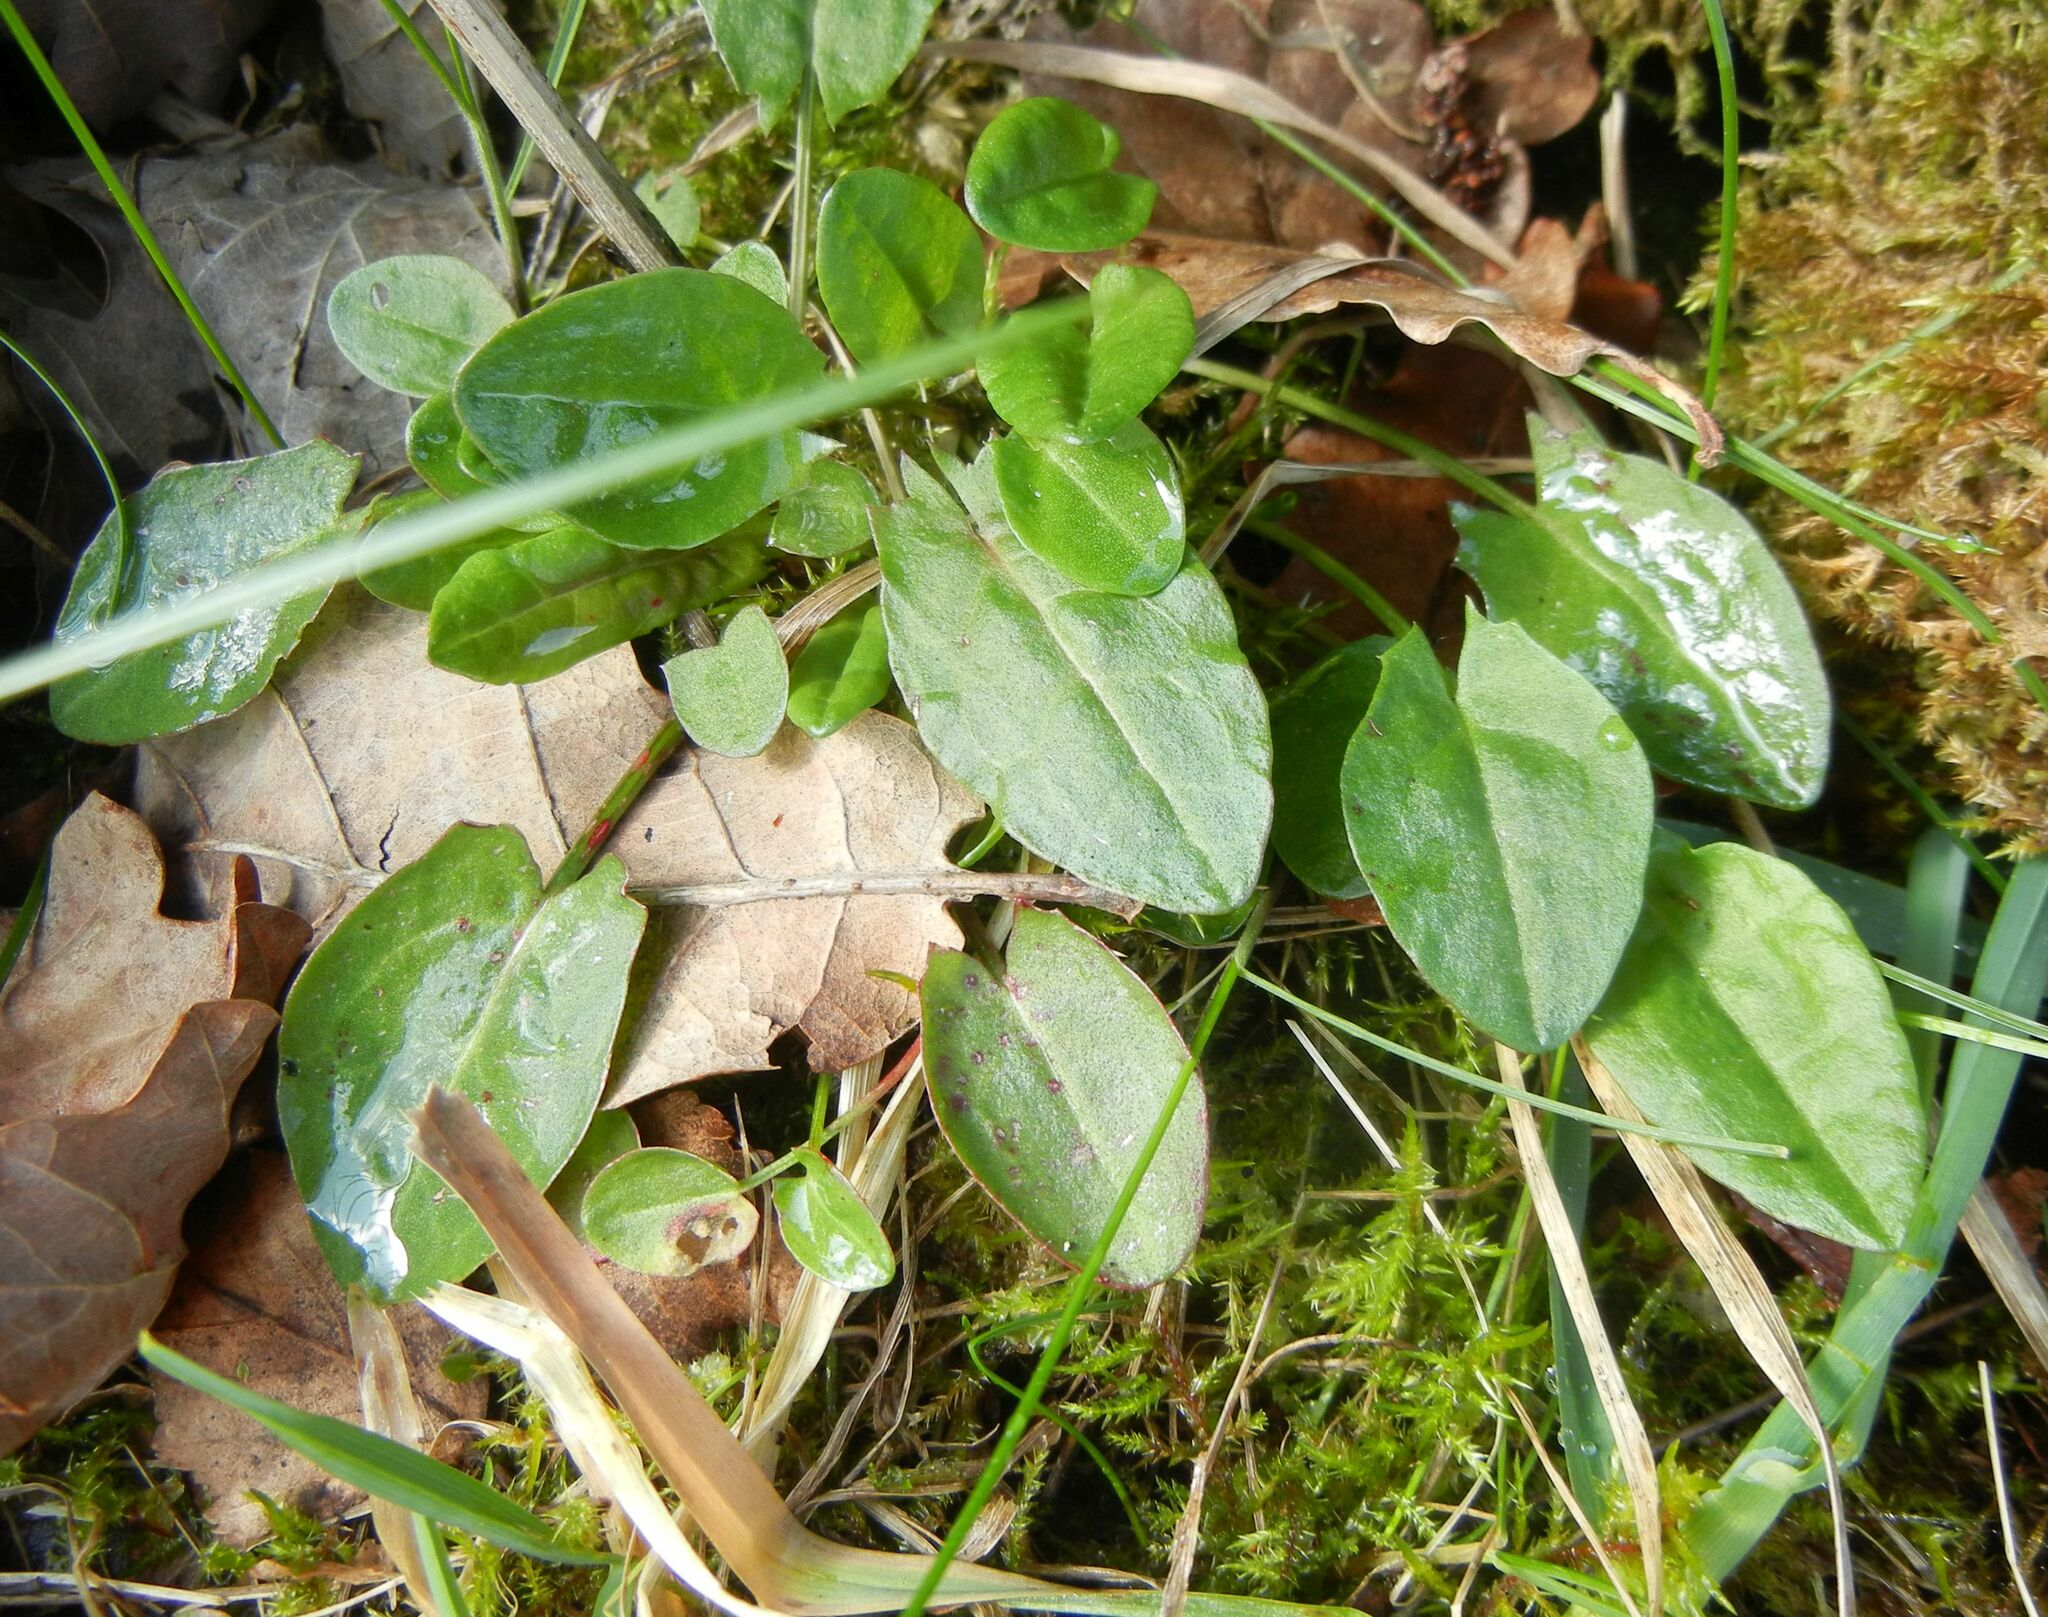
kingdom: Plantae
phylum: Tracheophyta
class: Magnoliopsida
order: Caryophyllales
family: Polygonaceae
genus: Rumex
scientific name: Rumex acetosa
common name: Garden sorrel
